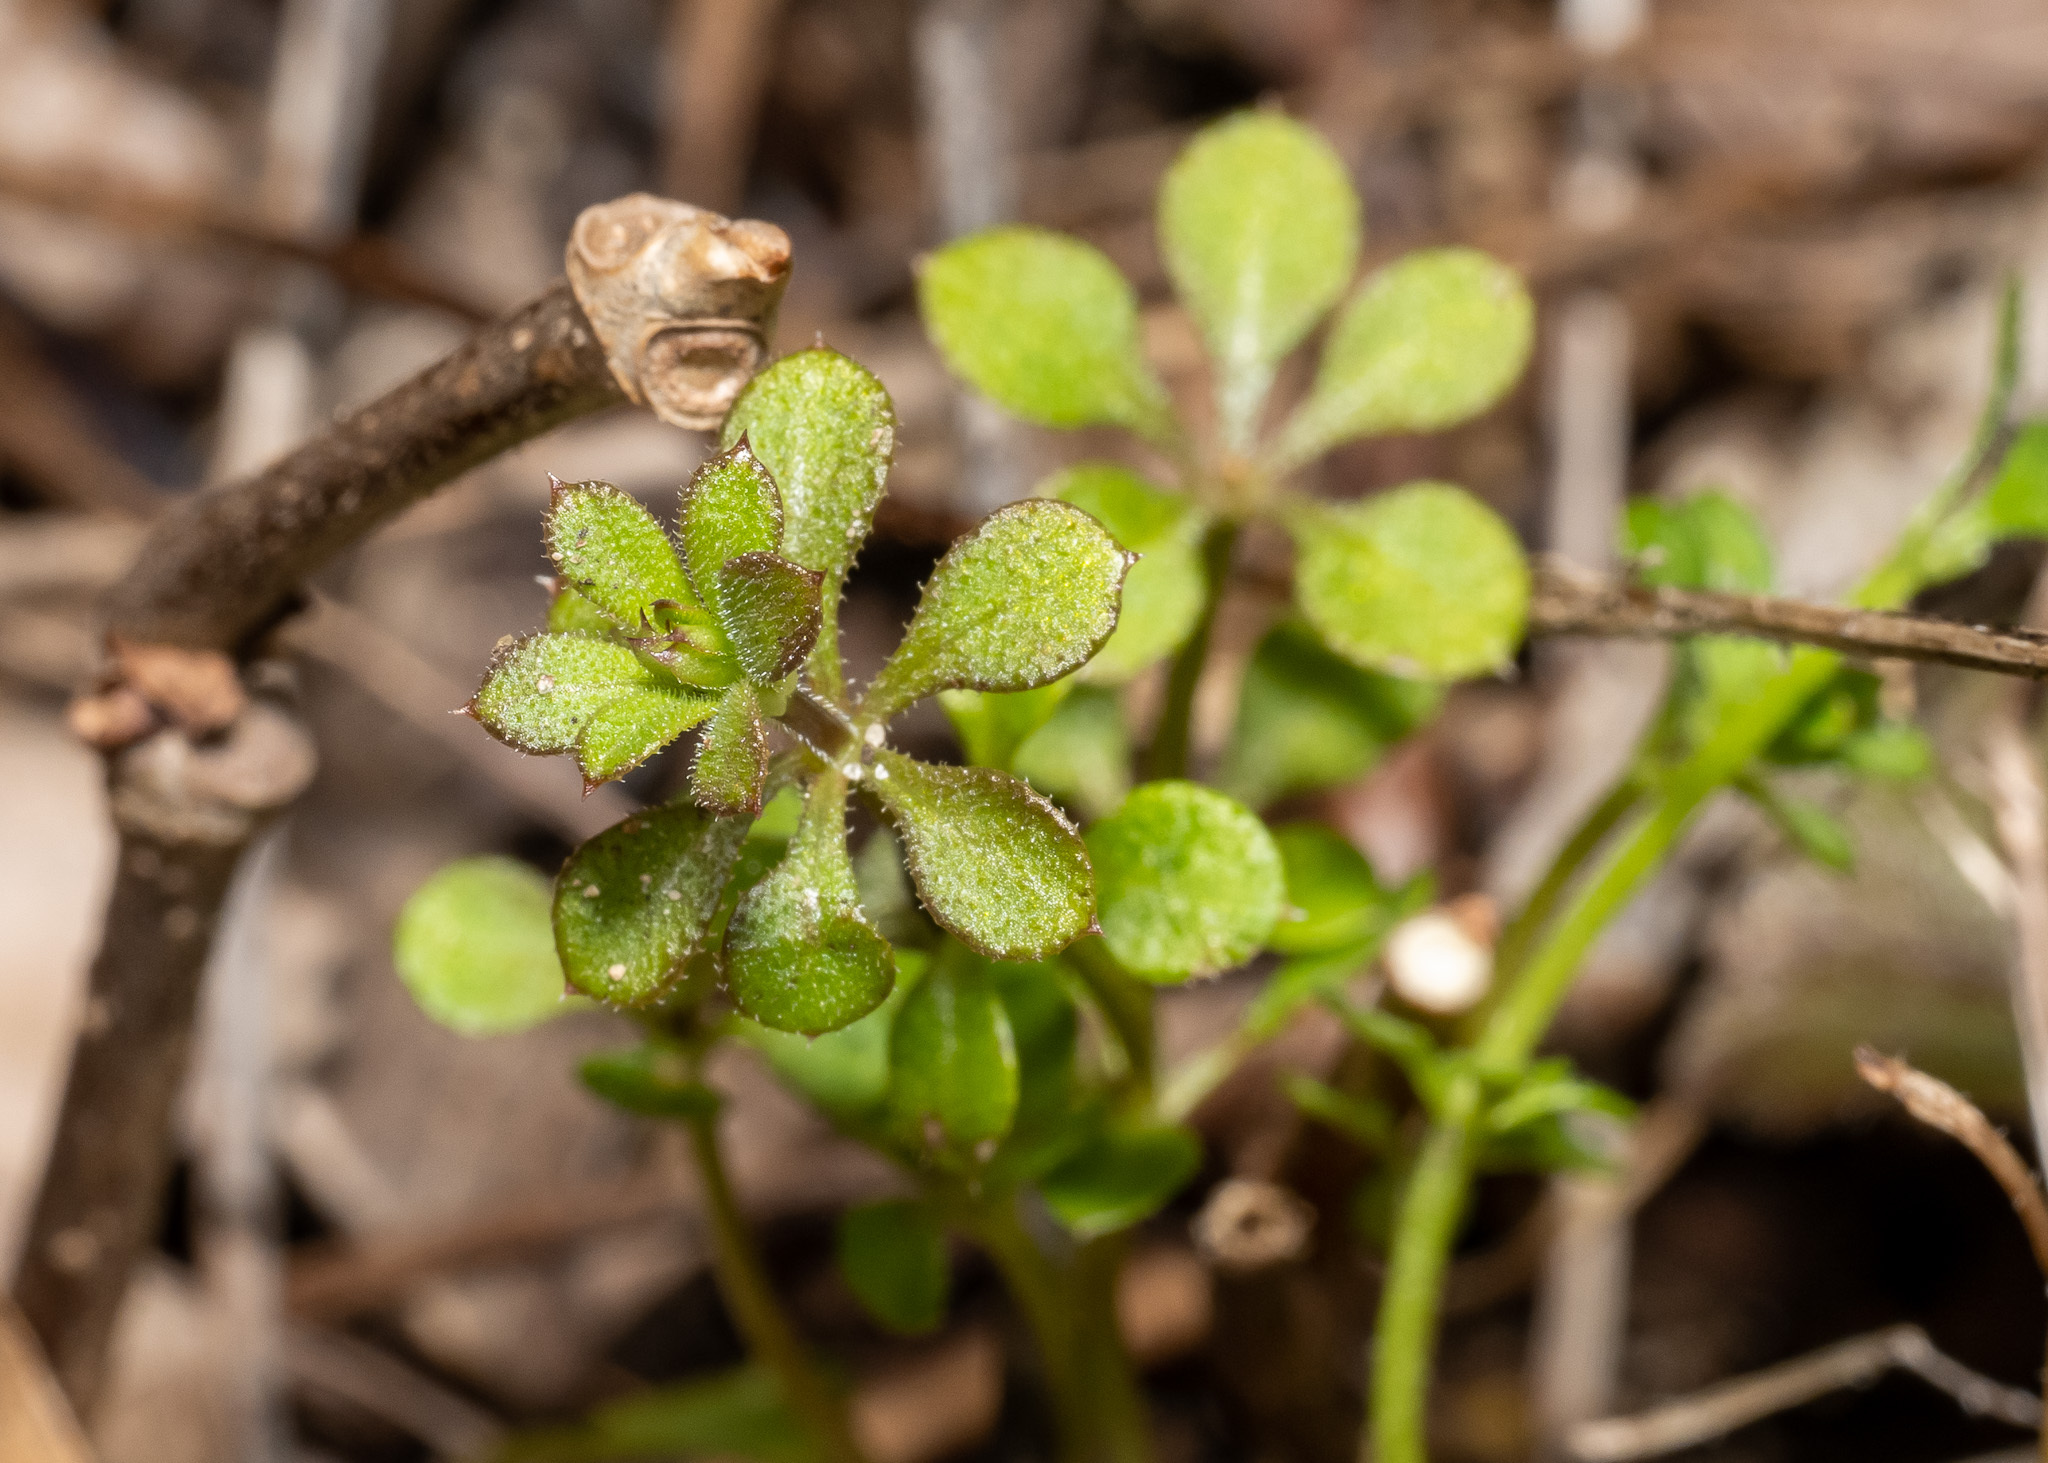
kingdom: Plantae
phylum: Tracheophyta
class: Magnoliopsida
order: Gentianales
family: Rubiaceae
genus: Galium
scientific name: Galium aparine
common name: Cleavers
